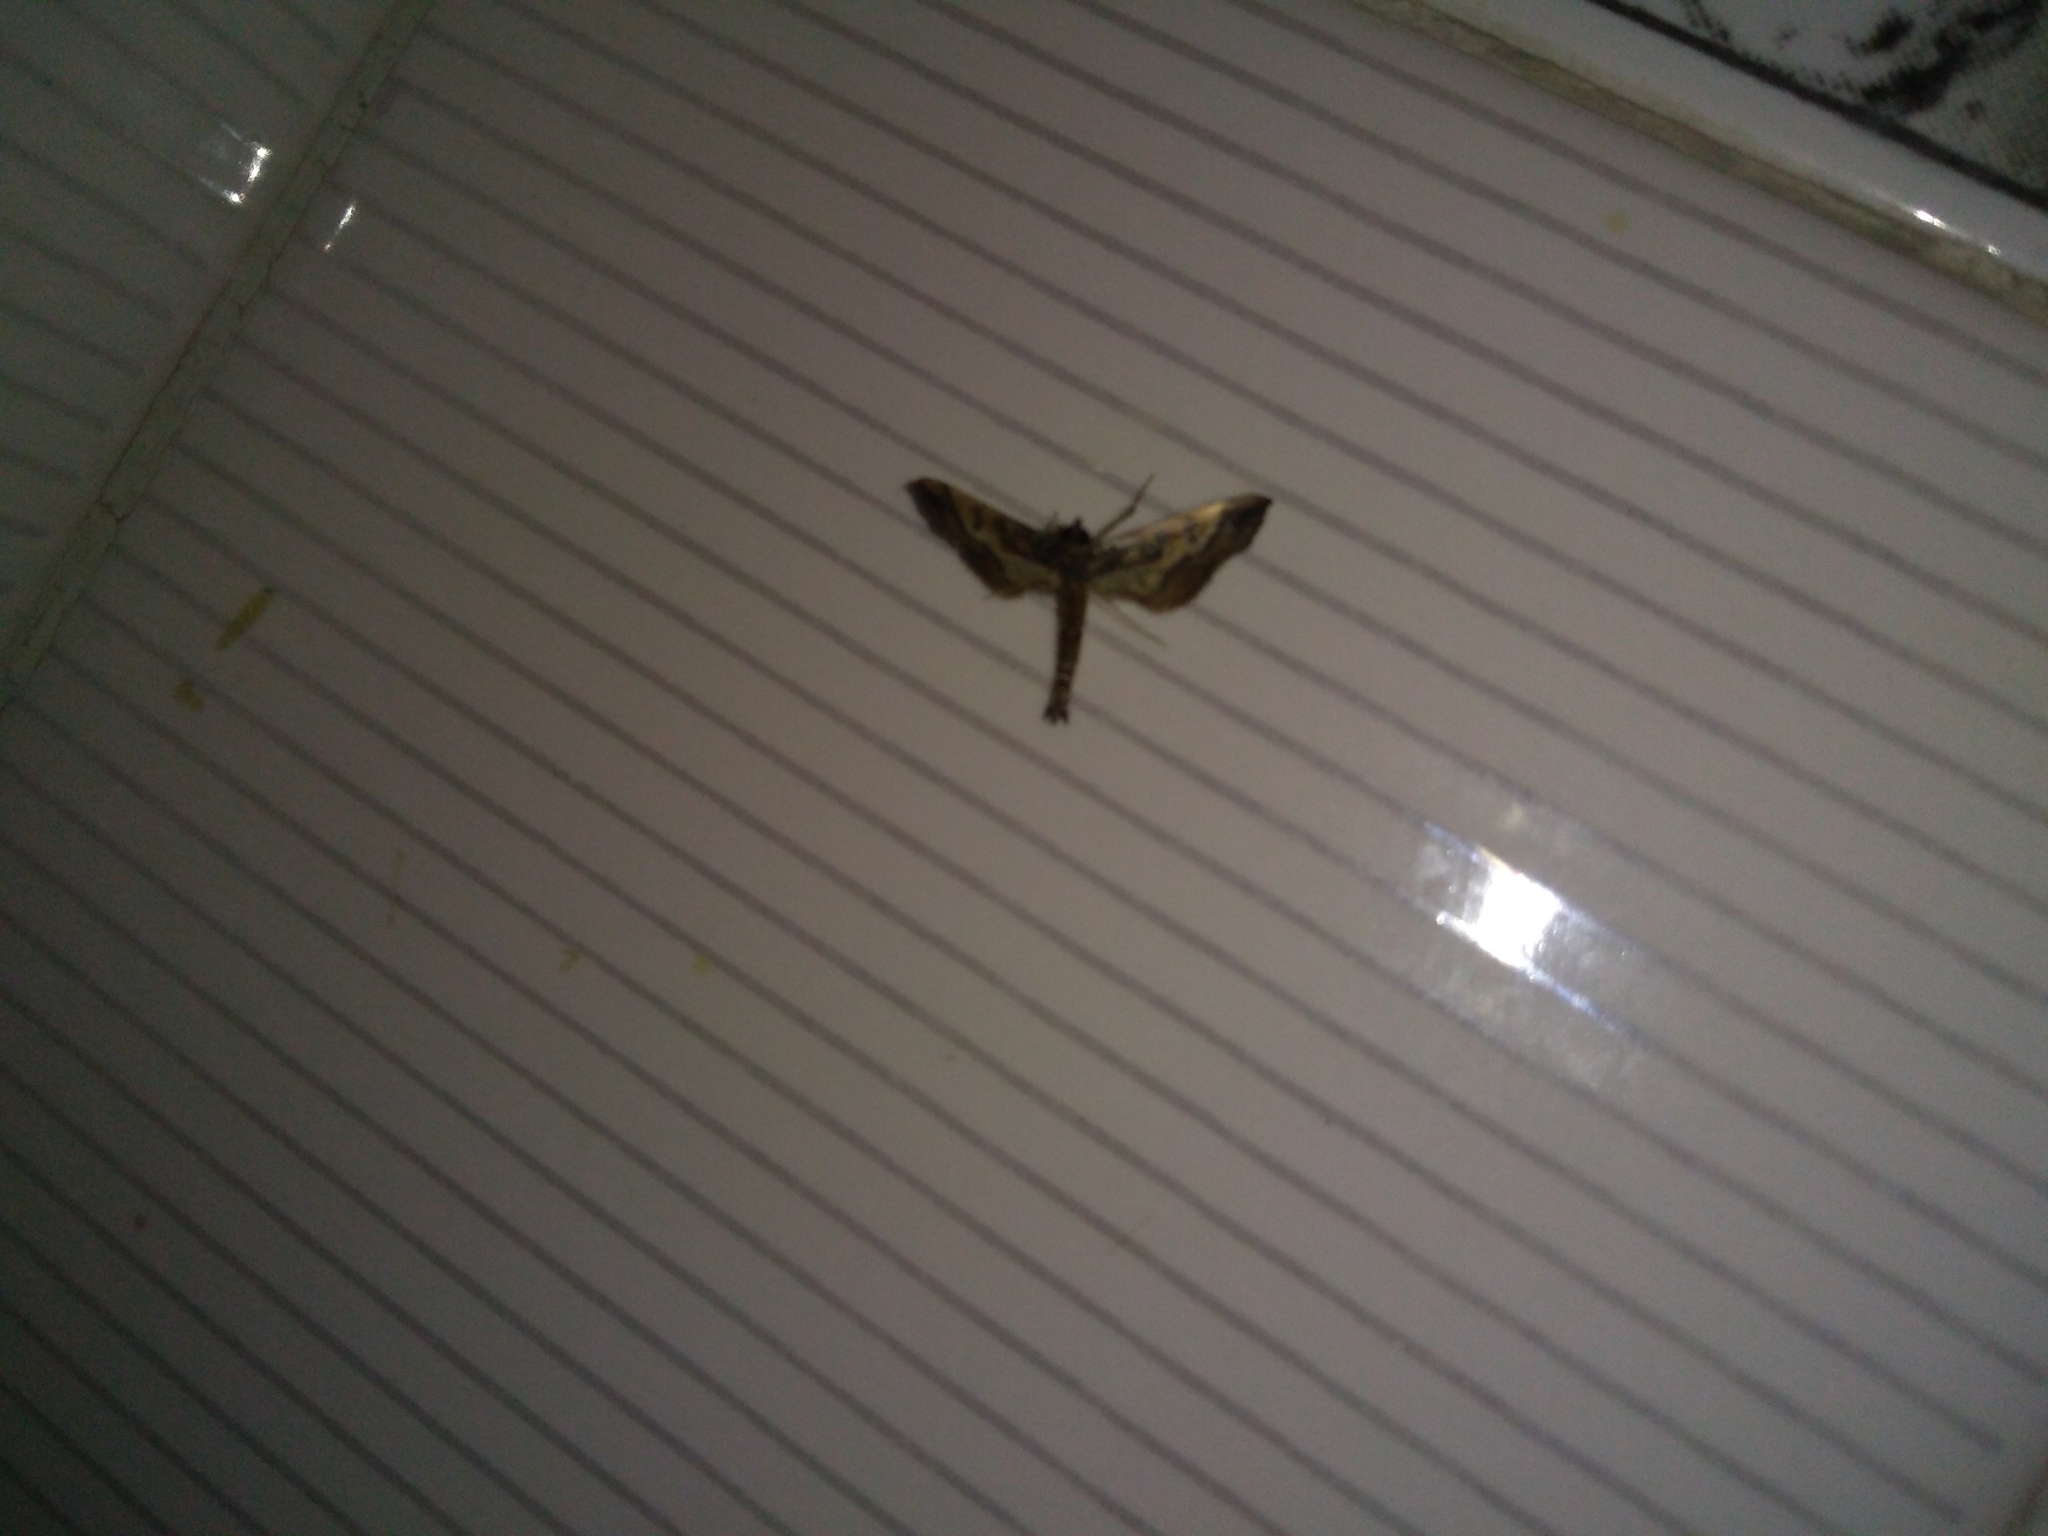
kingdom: Animalia
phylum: Arthropoda
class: Insecta
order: Lepidoptera
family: Crambidae
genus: Hydriris
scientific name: Hydriris ornatalis
